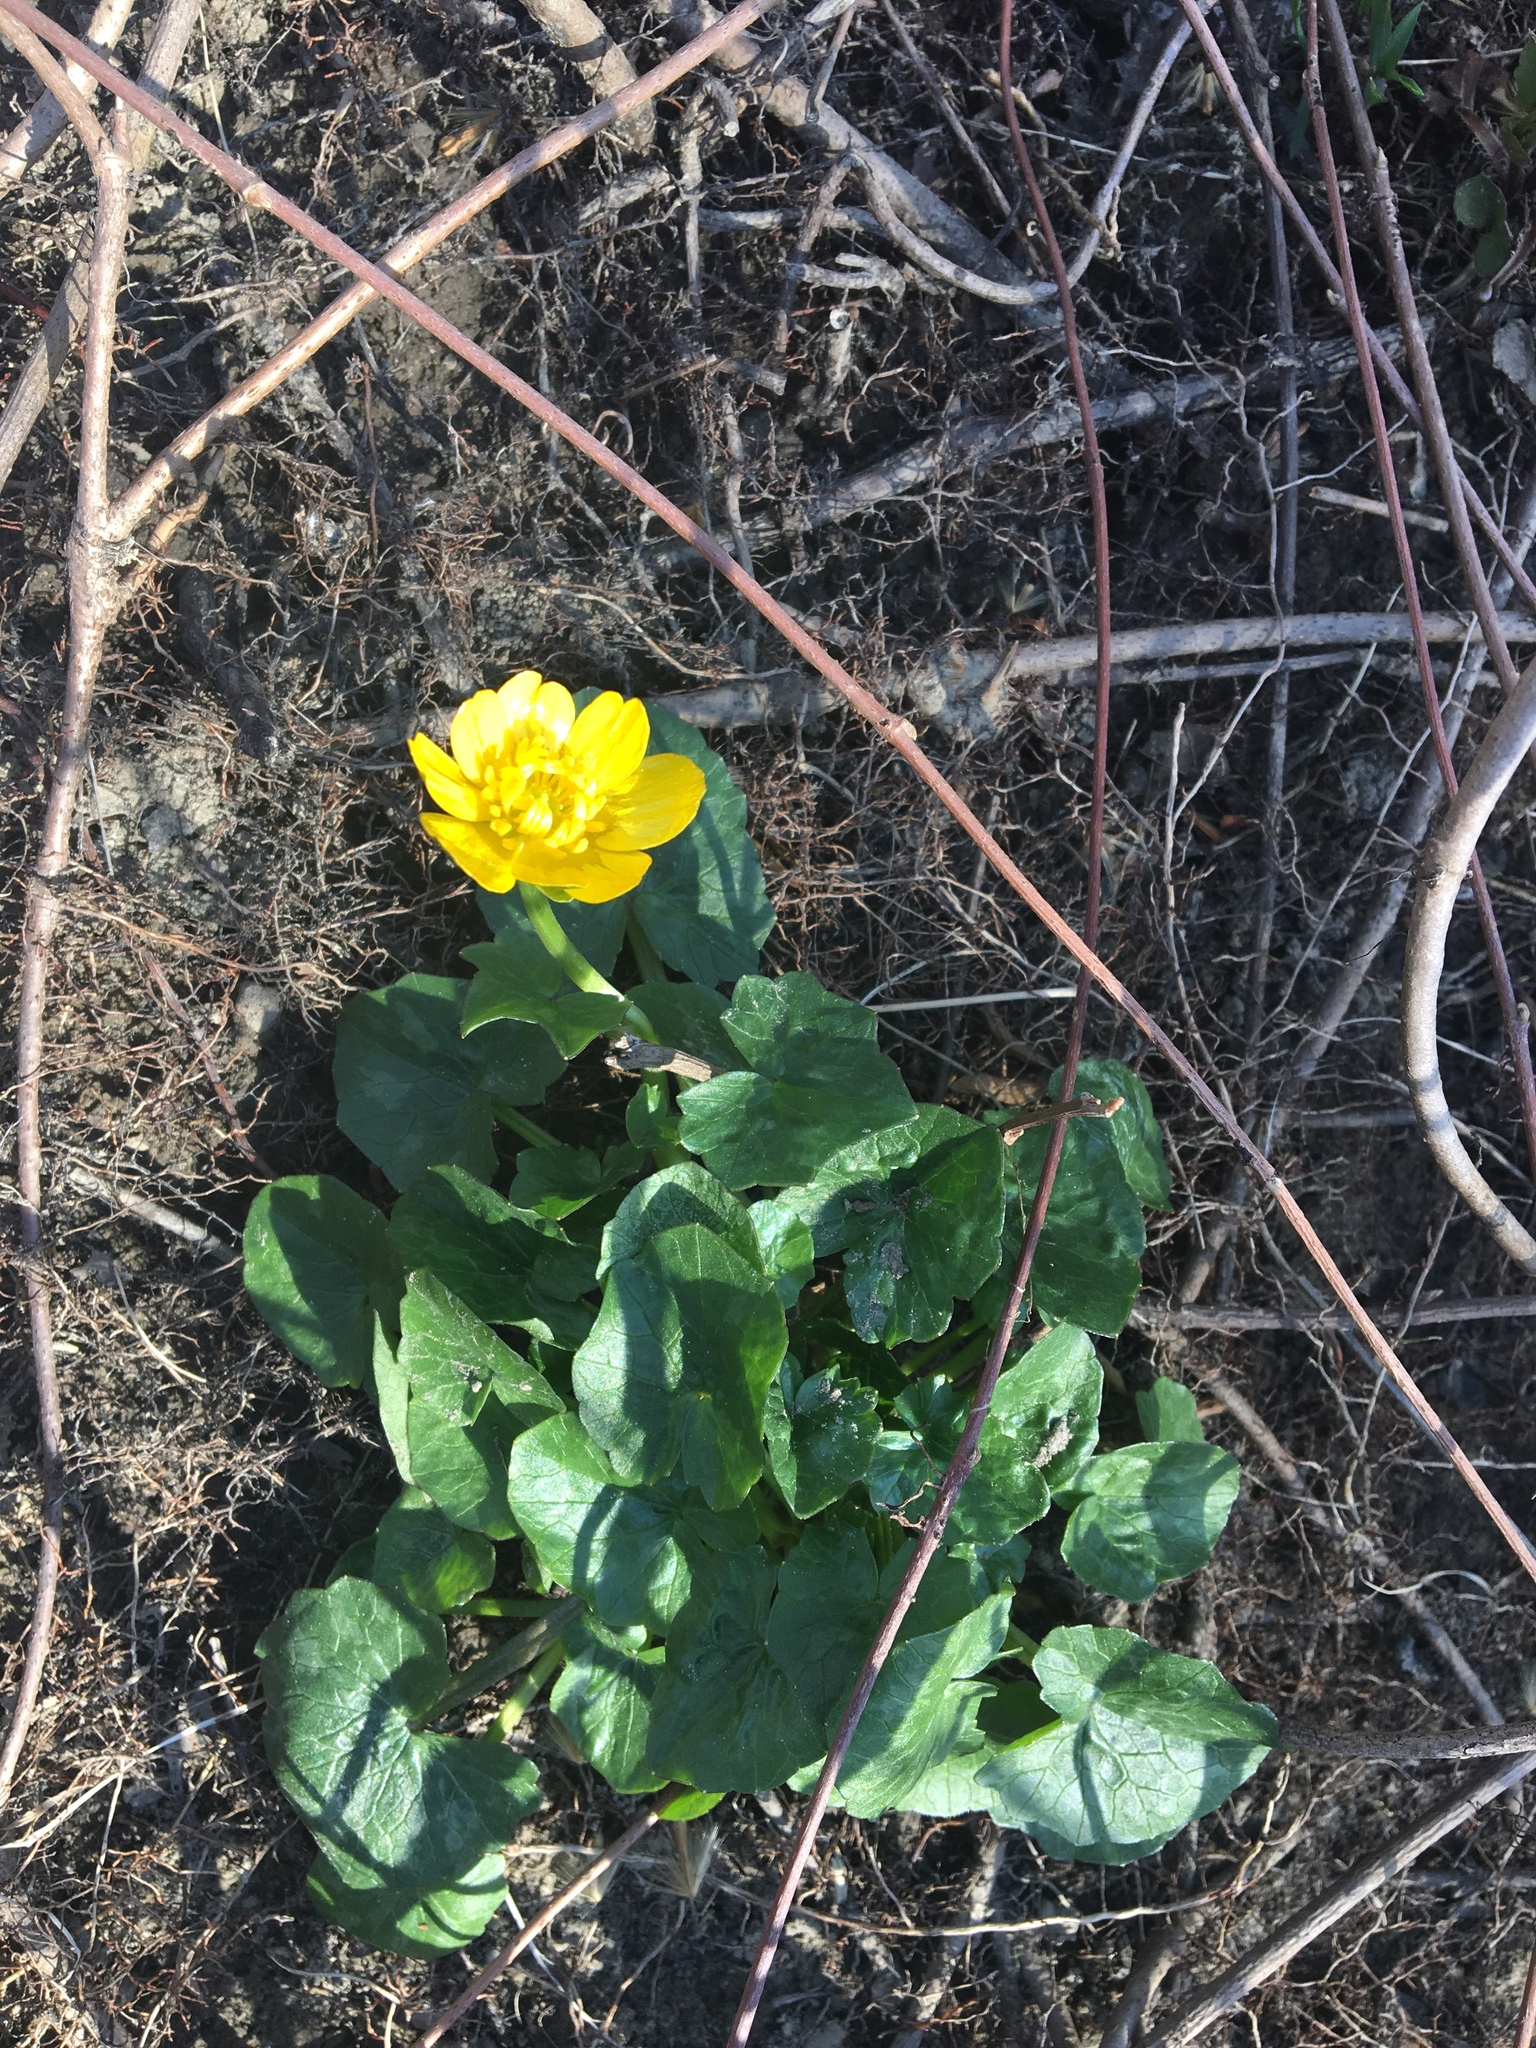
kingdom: Plantae
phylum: Tracheophyta
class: Magnoliopsida
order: Ranunculales
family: Ranunculaceae
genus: Ficaria
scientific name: Ficaria verna
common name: Lesser celandine
